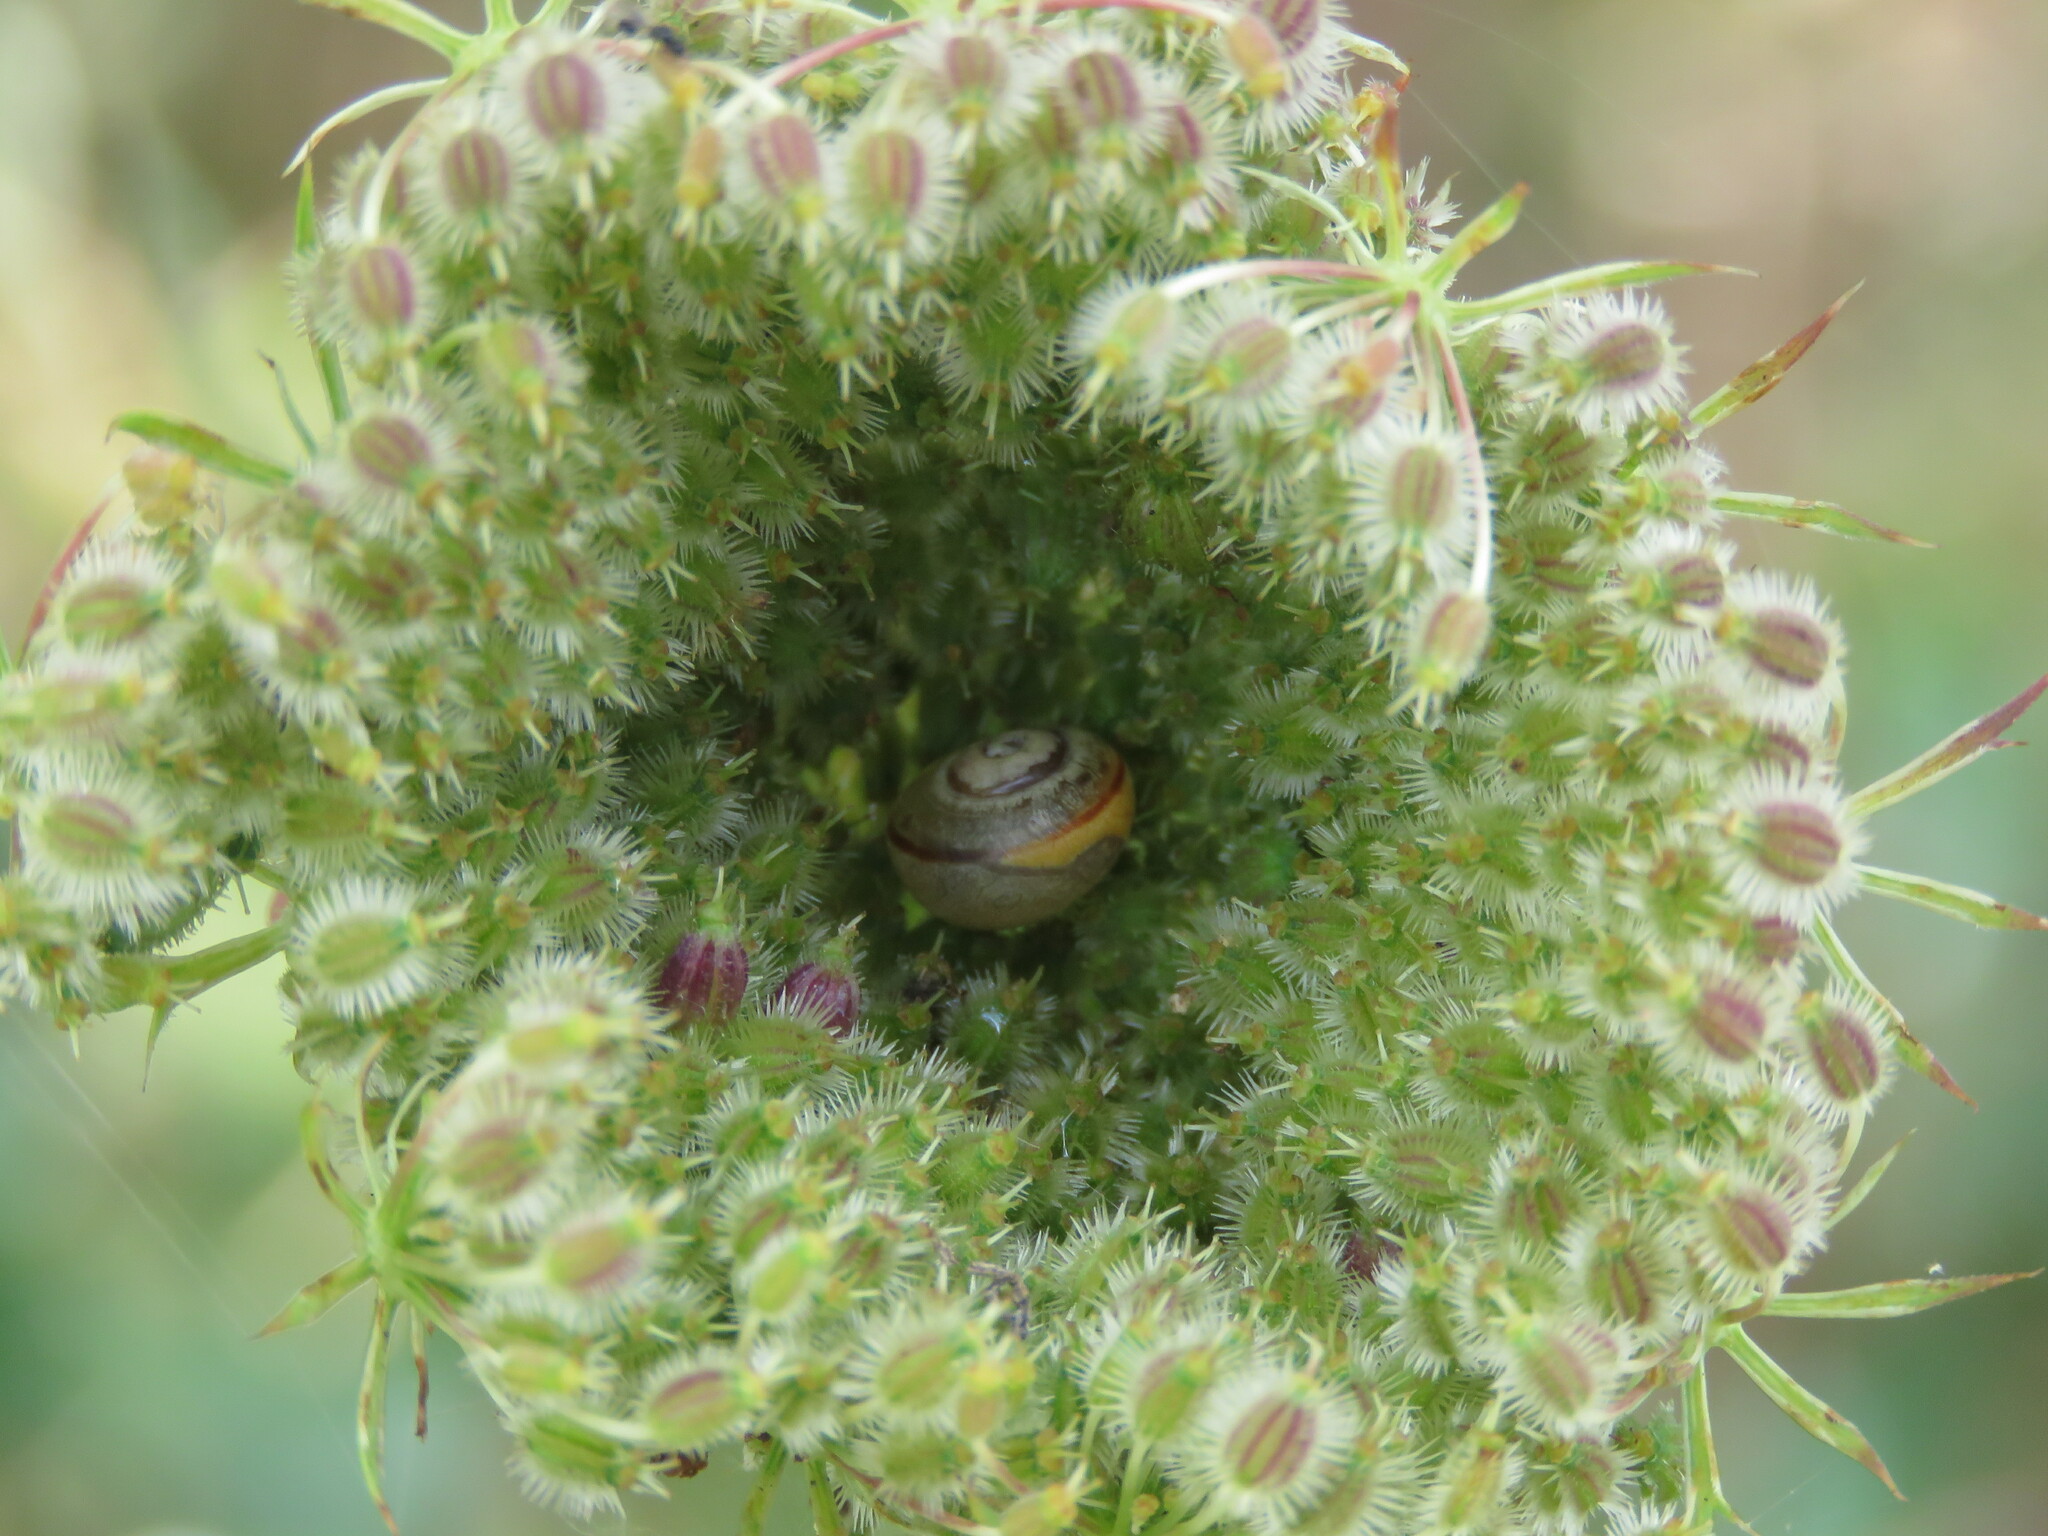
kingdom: Animalia
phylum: Mollusca
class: Gastropoda
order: Stylommatophora
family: Helicidae
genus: Cepaea
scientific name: Cepaea nemoralis
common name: Grovesnail
